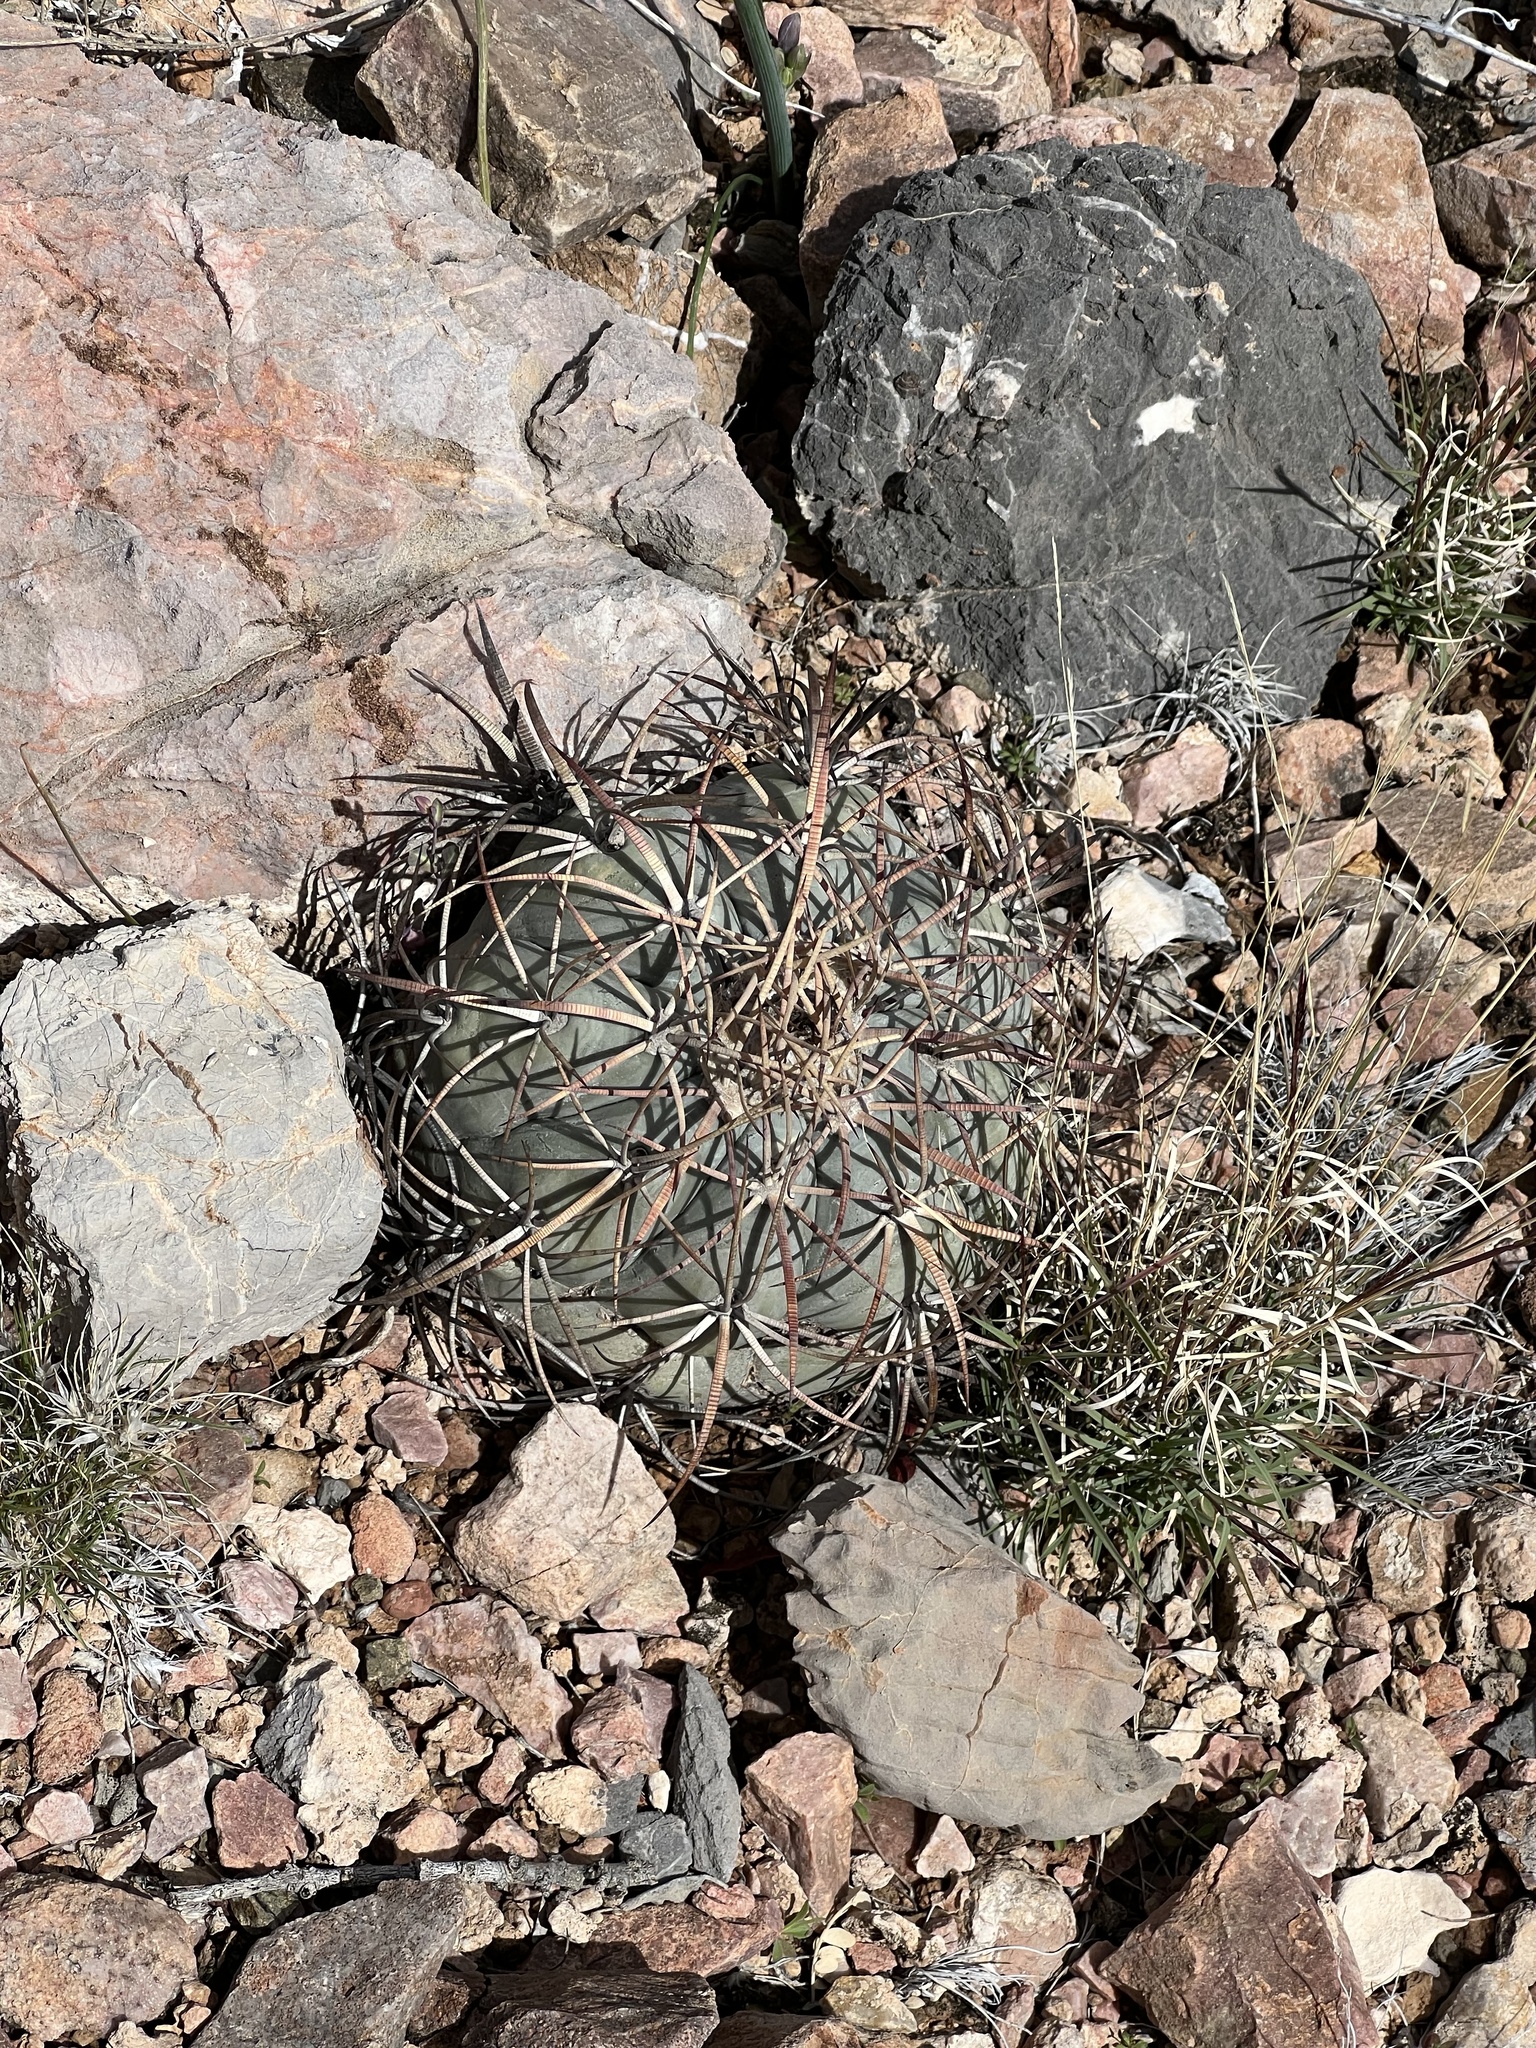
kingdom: Plantae
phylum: Tracheophyta
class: Magnoliopsida
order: Caryophyllales
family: Cactaceae
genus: Echinocactus
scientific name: Echinocactus horizonthalonius
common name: Devilshead
